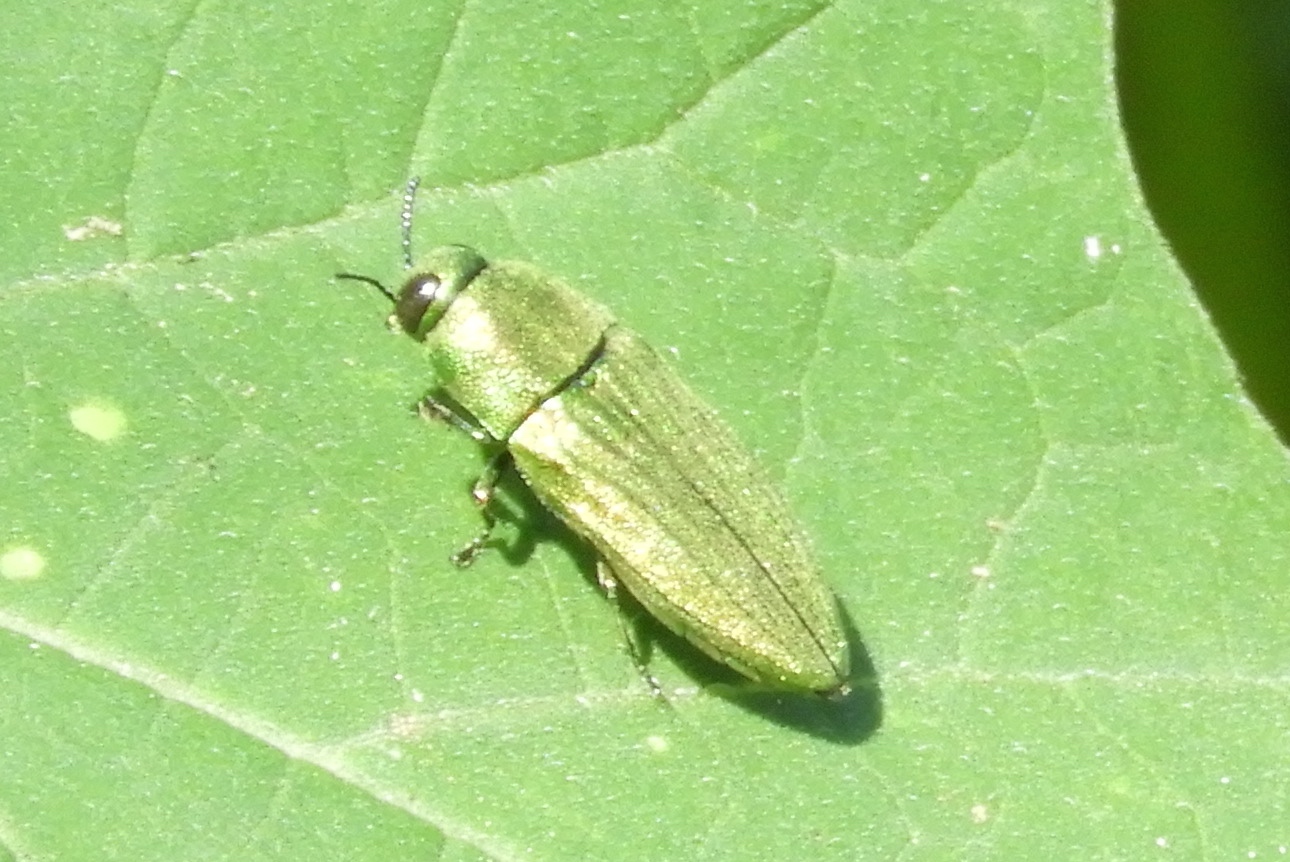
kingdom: Animalia
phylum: Arthropoda
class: Insecta
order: Coleoptera
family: Buprestidae
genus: Agaeocera
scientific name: Agaeocera scintillans
